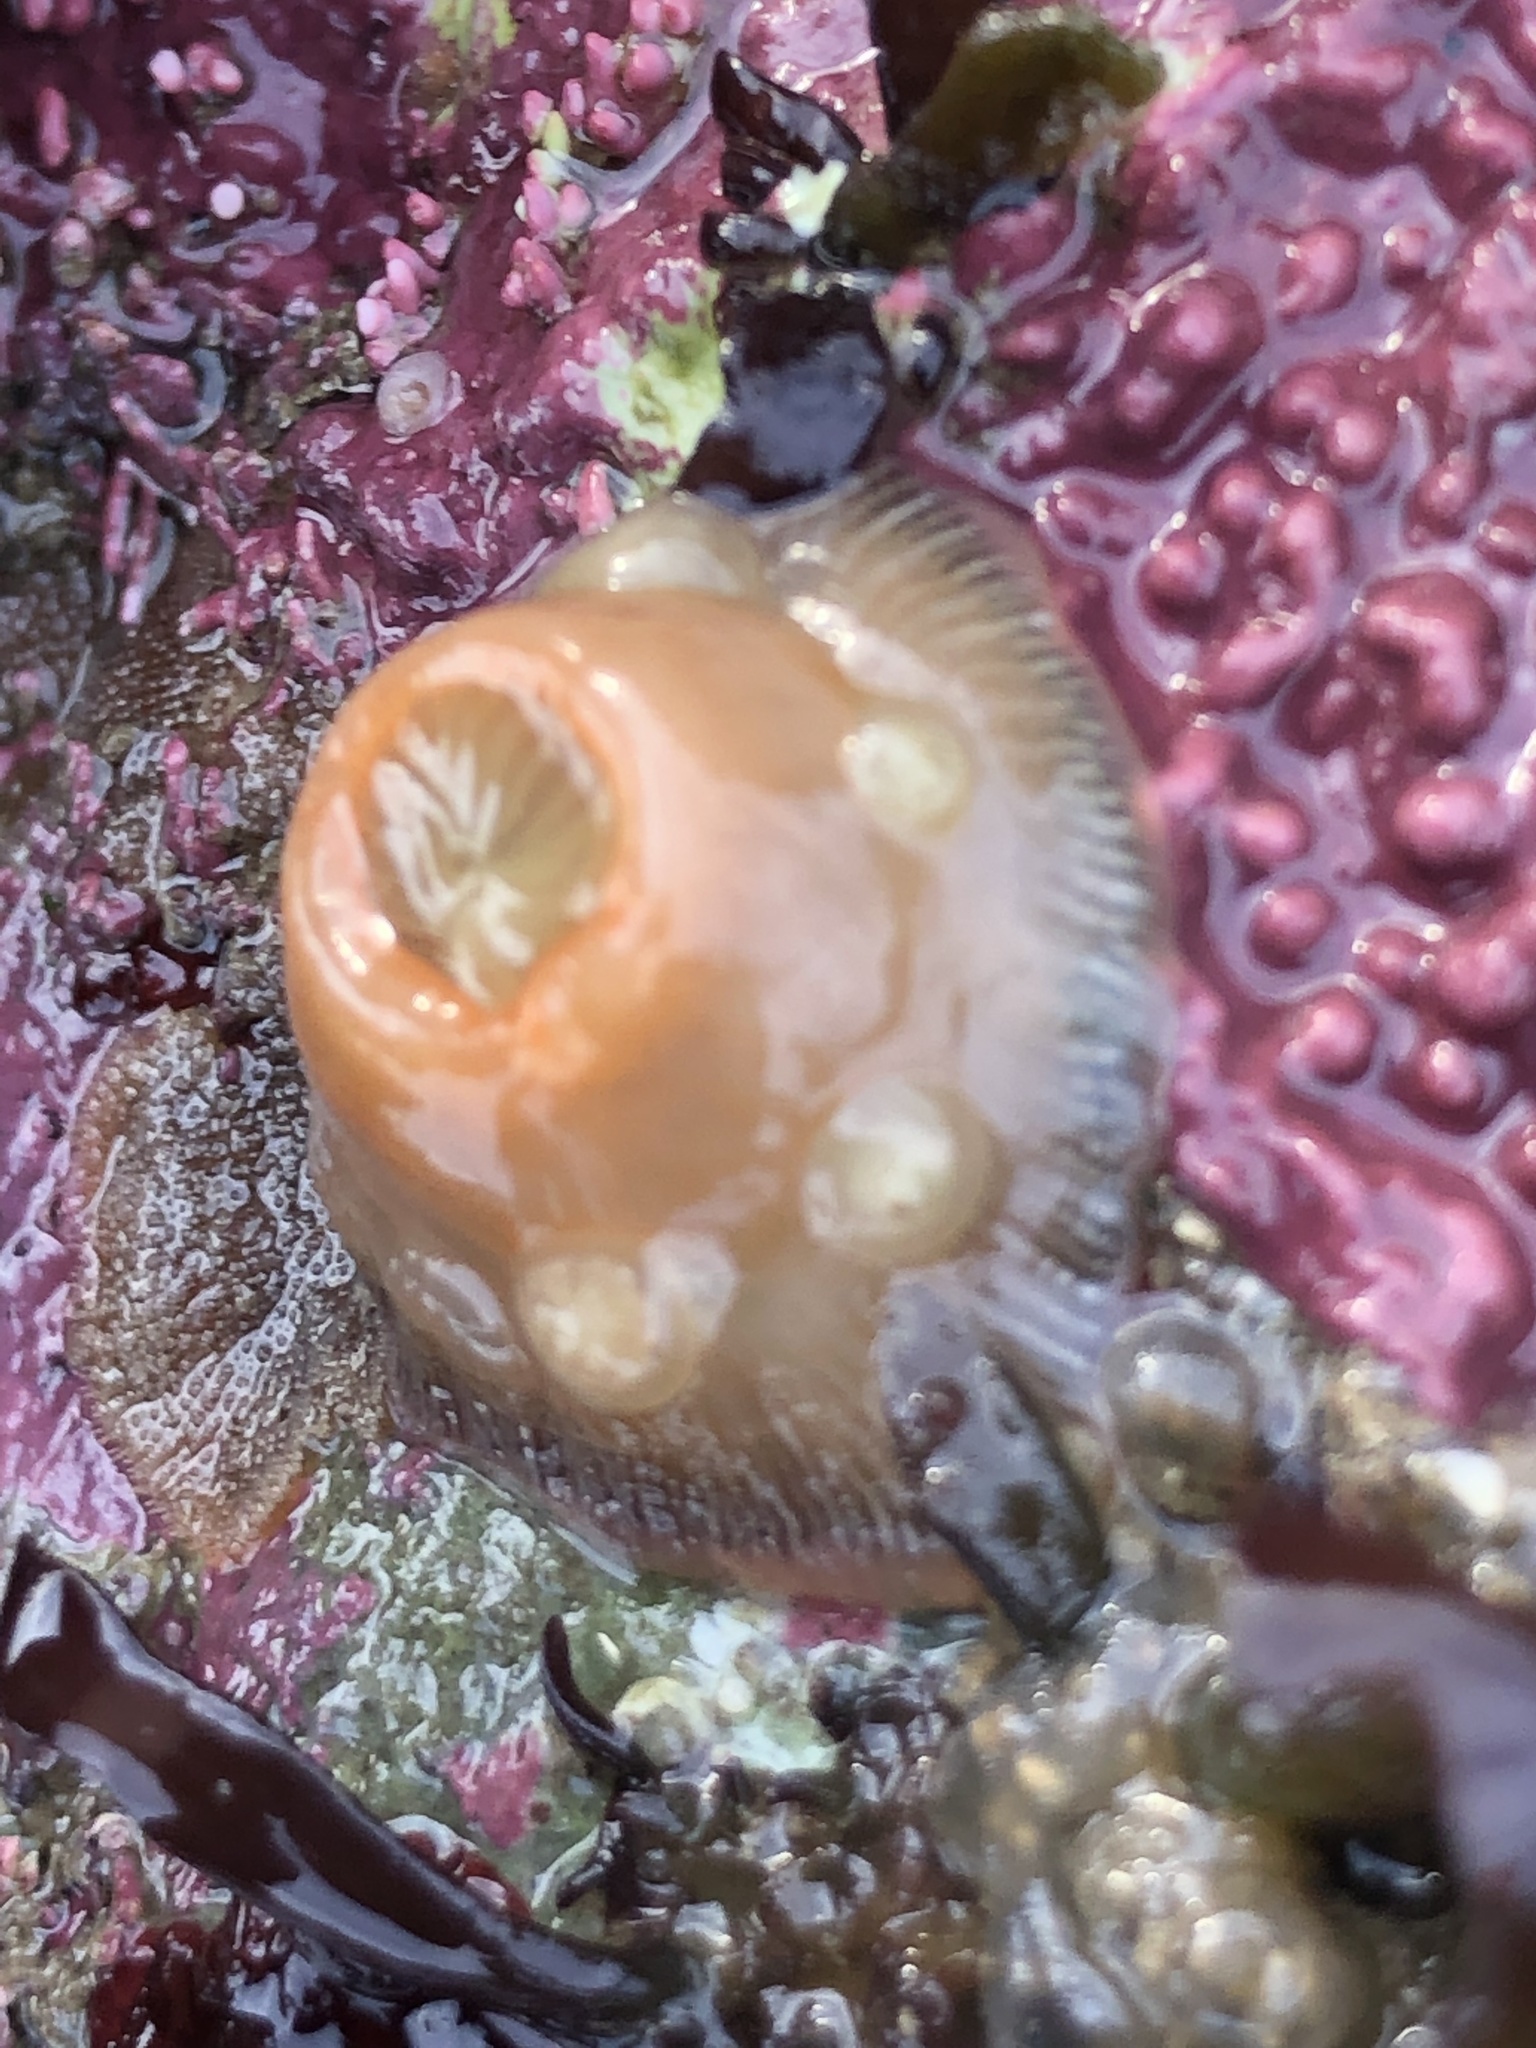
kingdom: Animalia
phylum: Cnidaria
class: Anthozoa
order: Actiniaria
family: Actiniidae
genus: Epiactis
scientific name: Epiactis prolifera
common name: Brooding anemone
